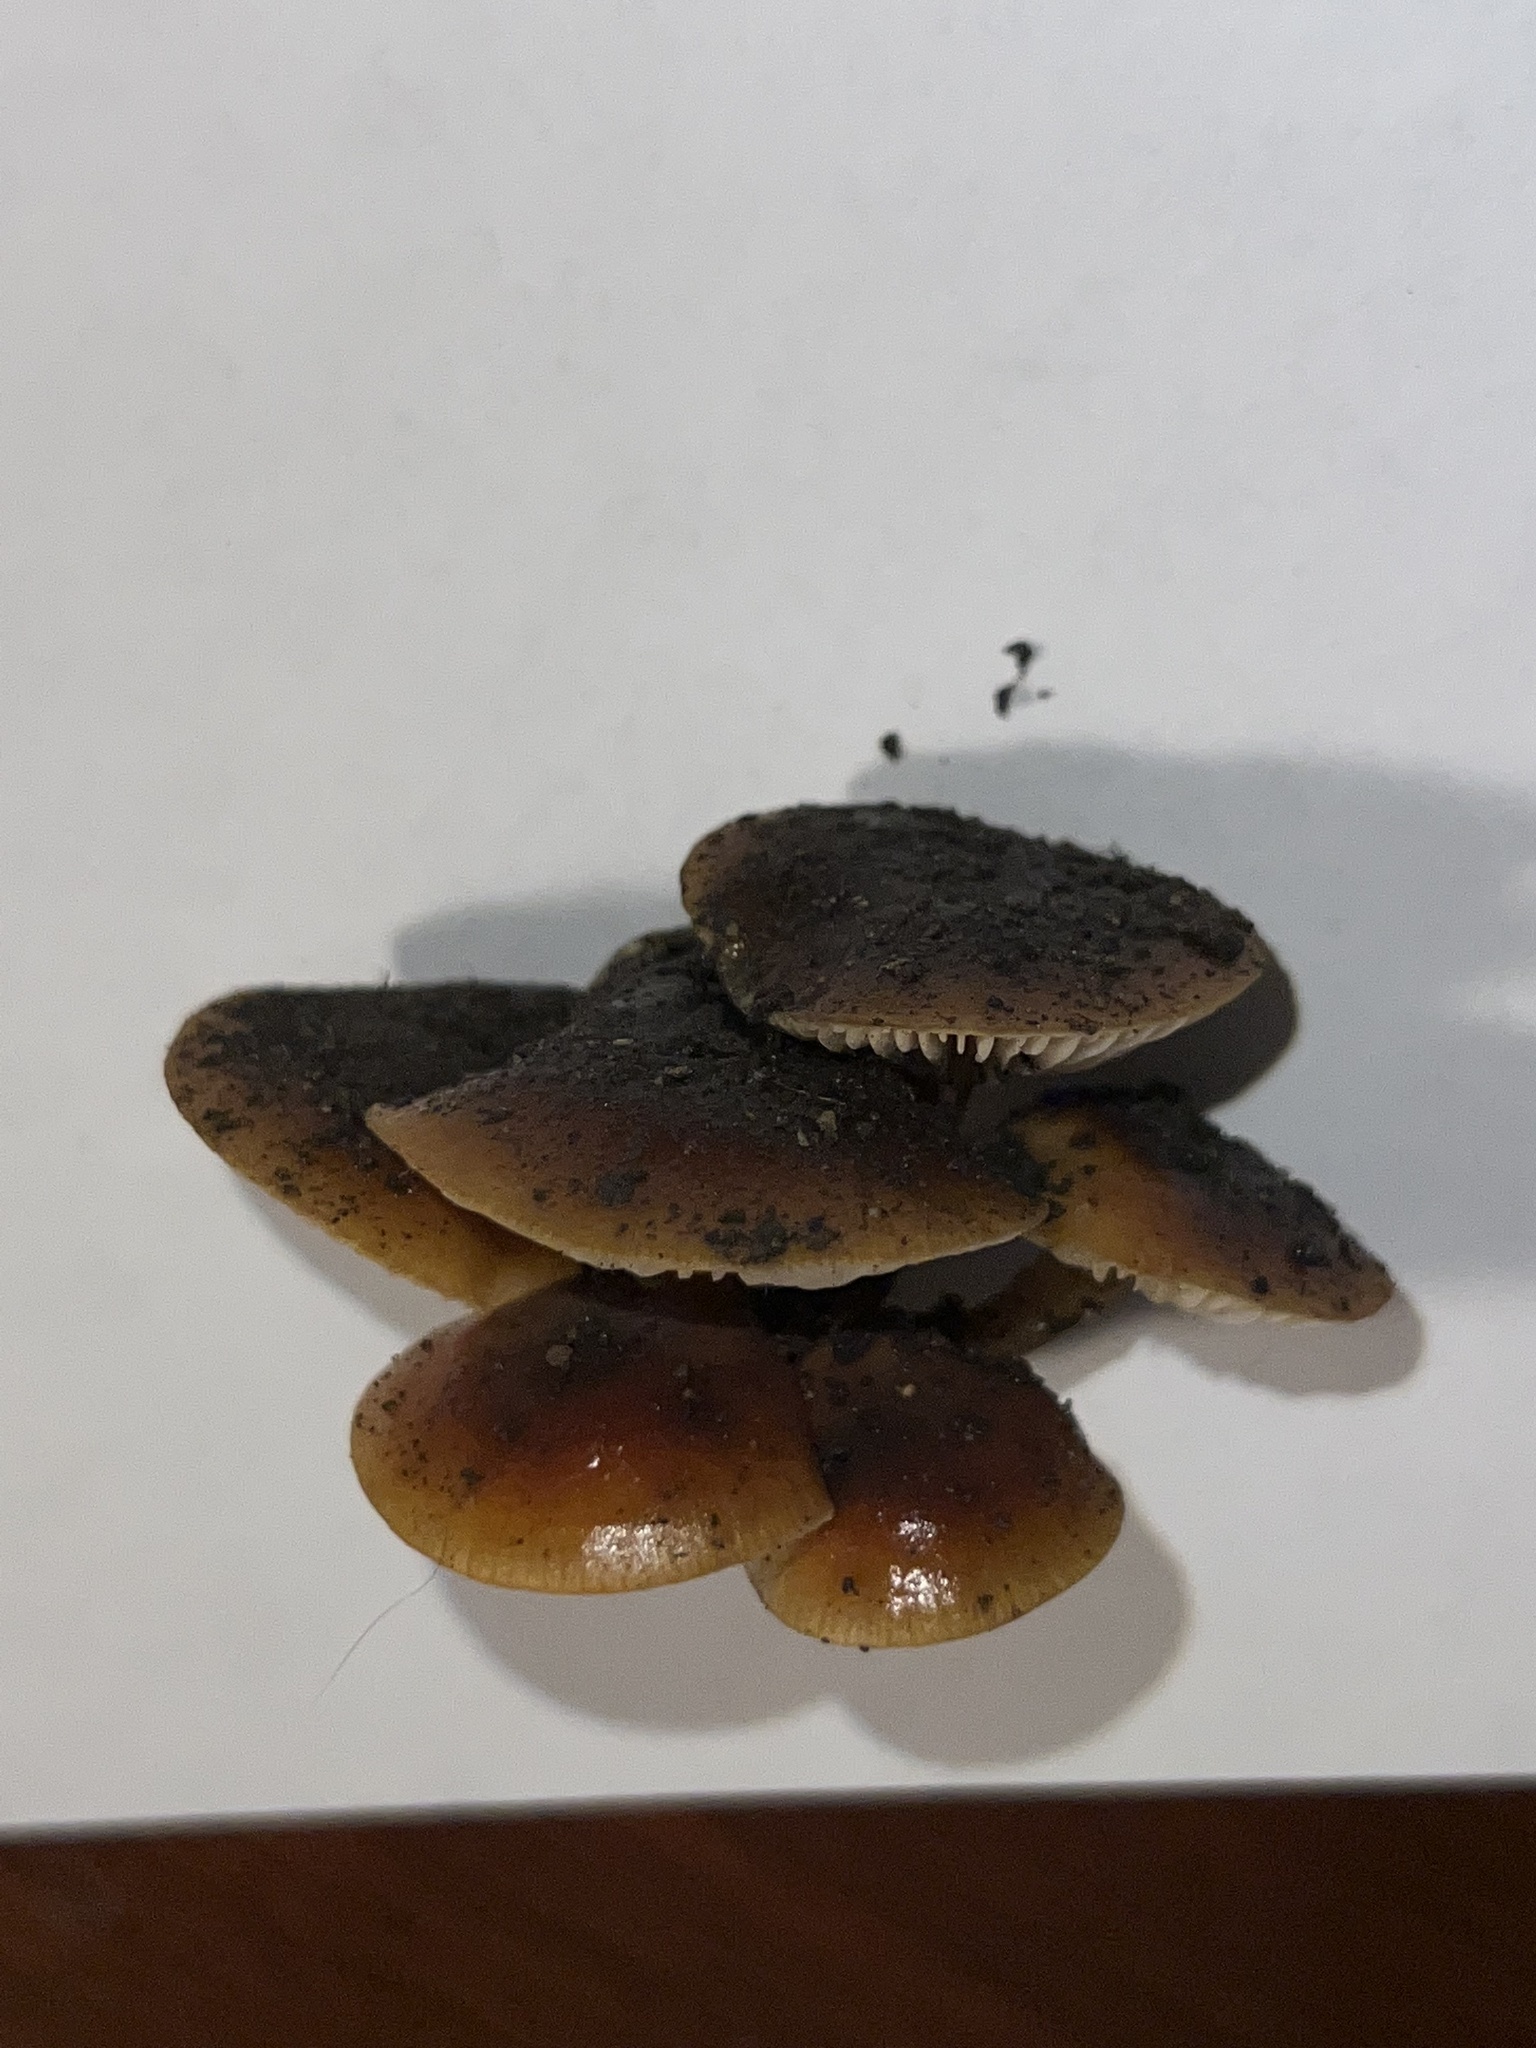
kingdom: Fungi
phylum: Basidiomycota
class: Agaricomycetes
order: Agaricales
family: Physalacriaceae
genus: Flammulina
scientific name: Flammulina velutipes
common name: Velvet shank
